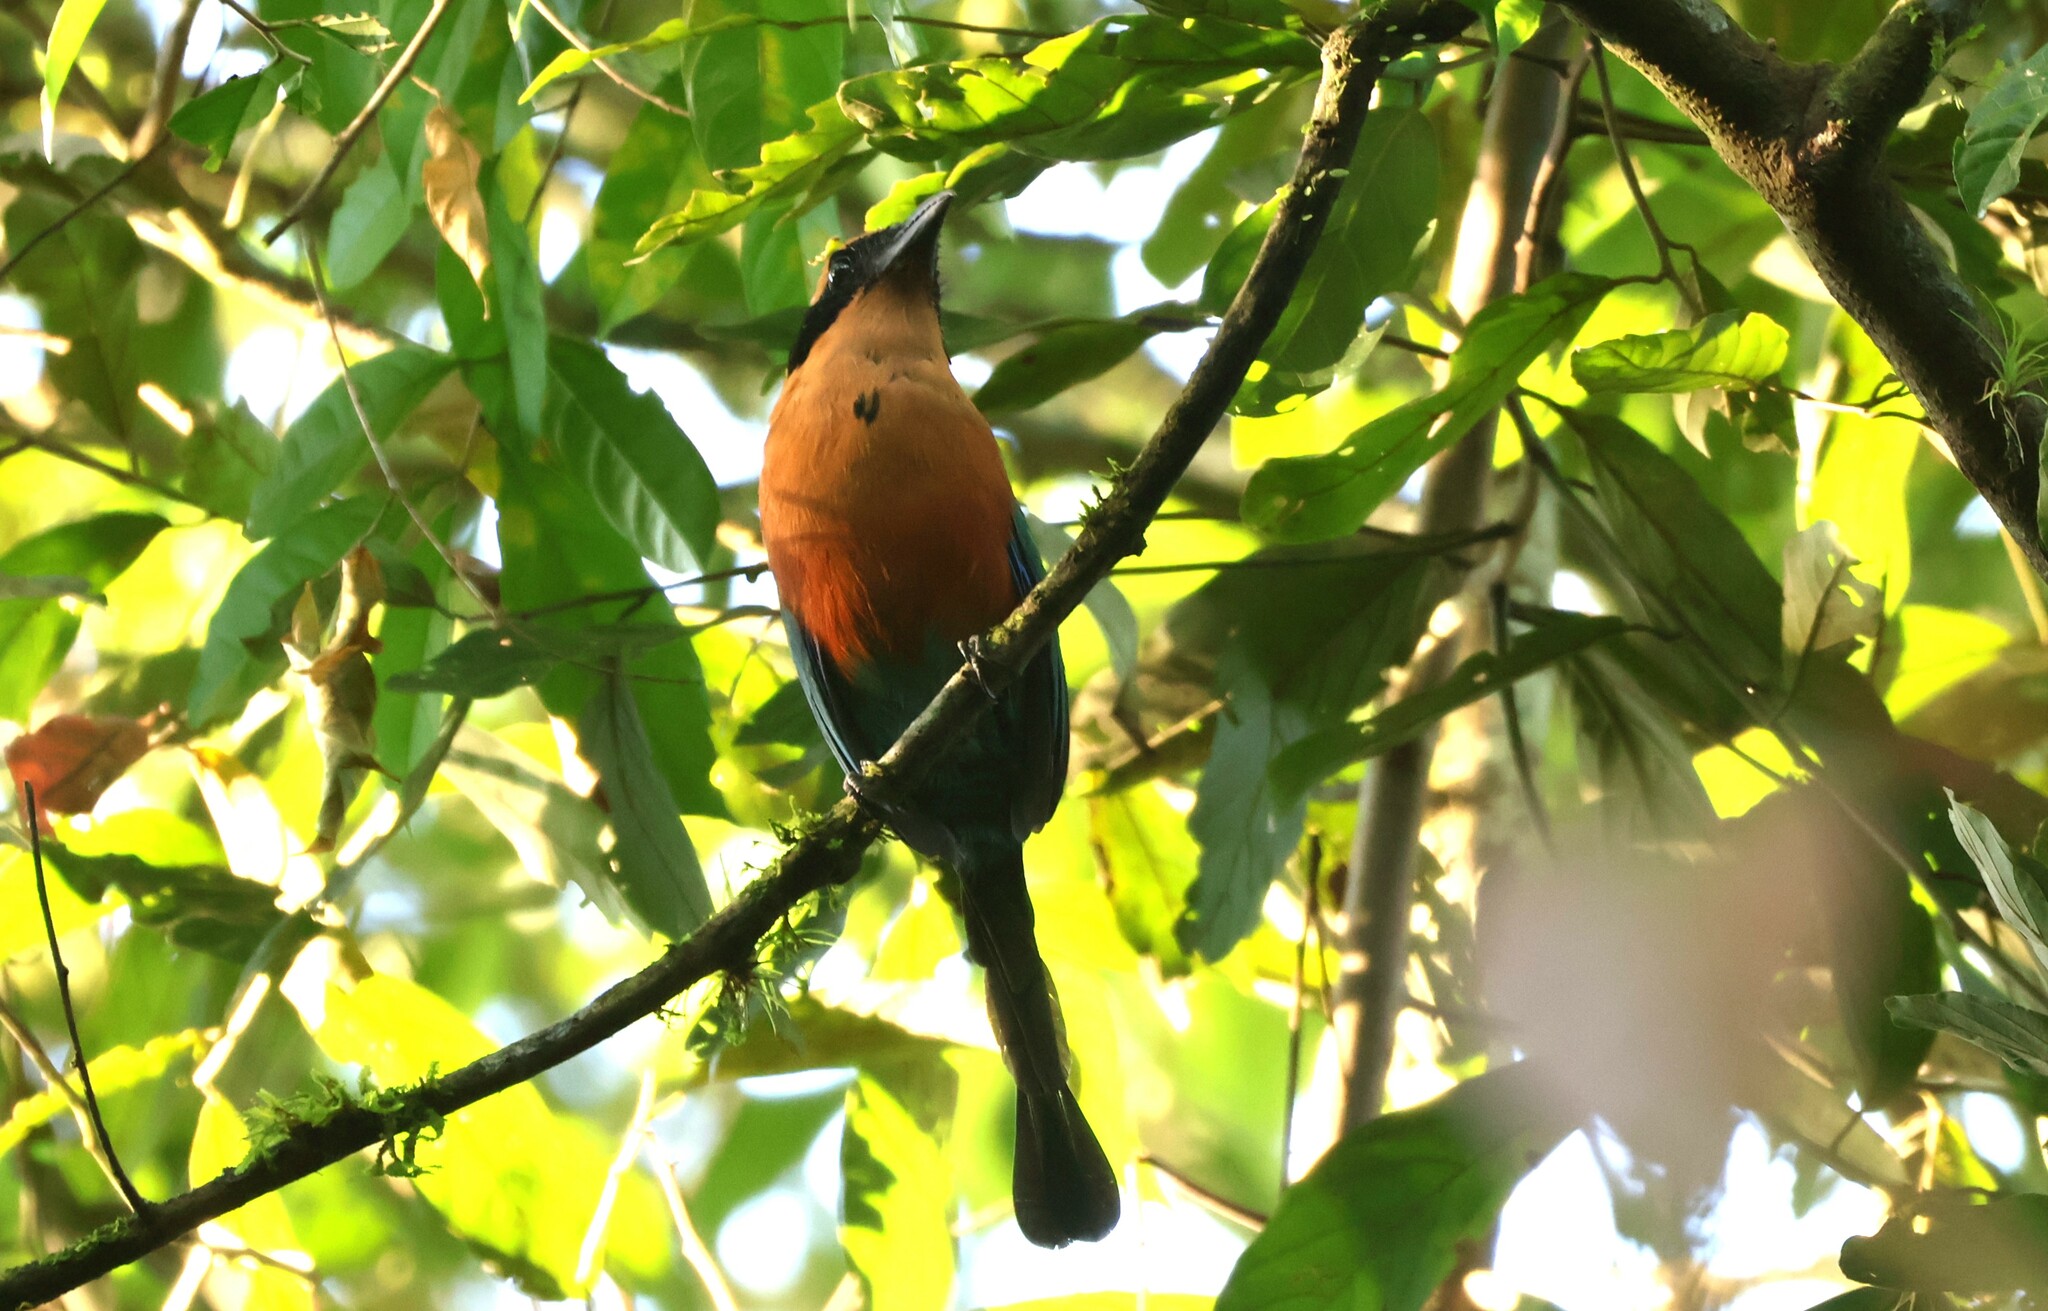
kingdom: Animalia
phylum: Chordata
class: Aves
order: Coraciiformes
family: Momotidae
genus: Baryphthengus
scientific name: Baryphthengus martii
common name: Rufous motmot
